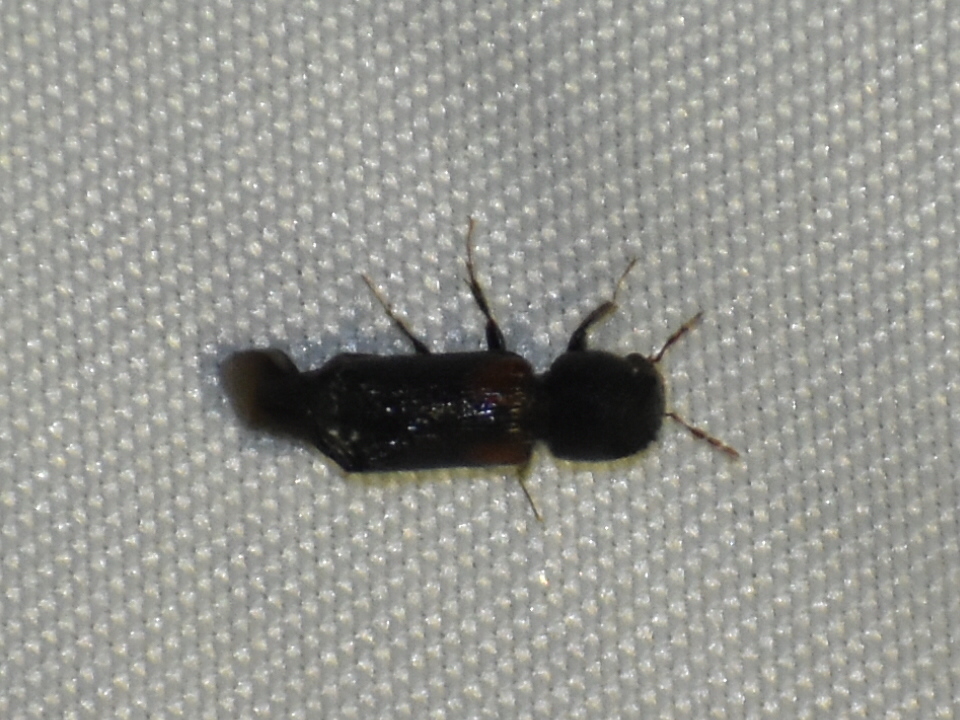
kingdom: Animalia
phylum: Arthropoda
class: Insecta
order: Coleoptera
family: Bostrichidae
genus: Xylobiops
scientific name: Xylobiops basilaris
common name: Red-shouldered bostrichid
